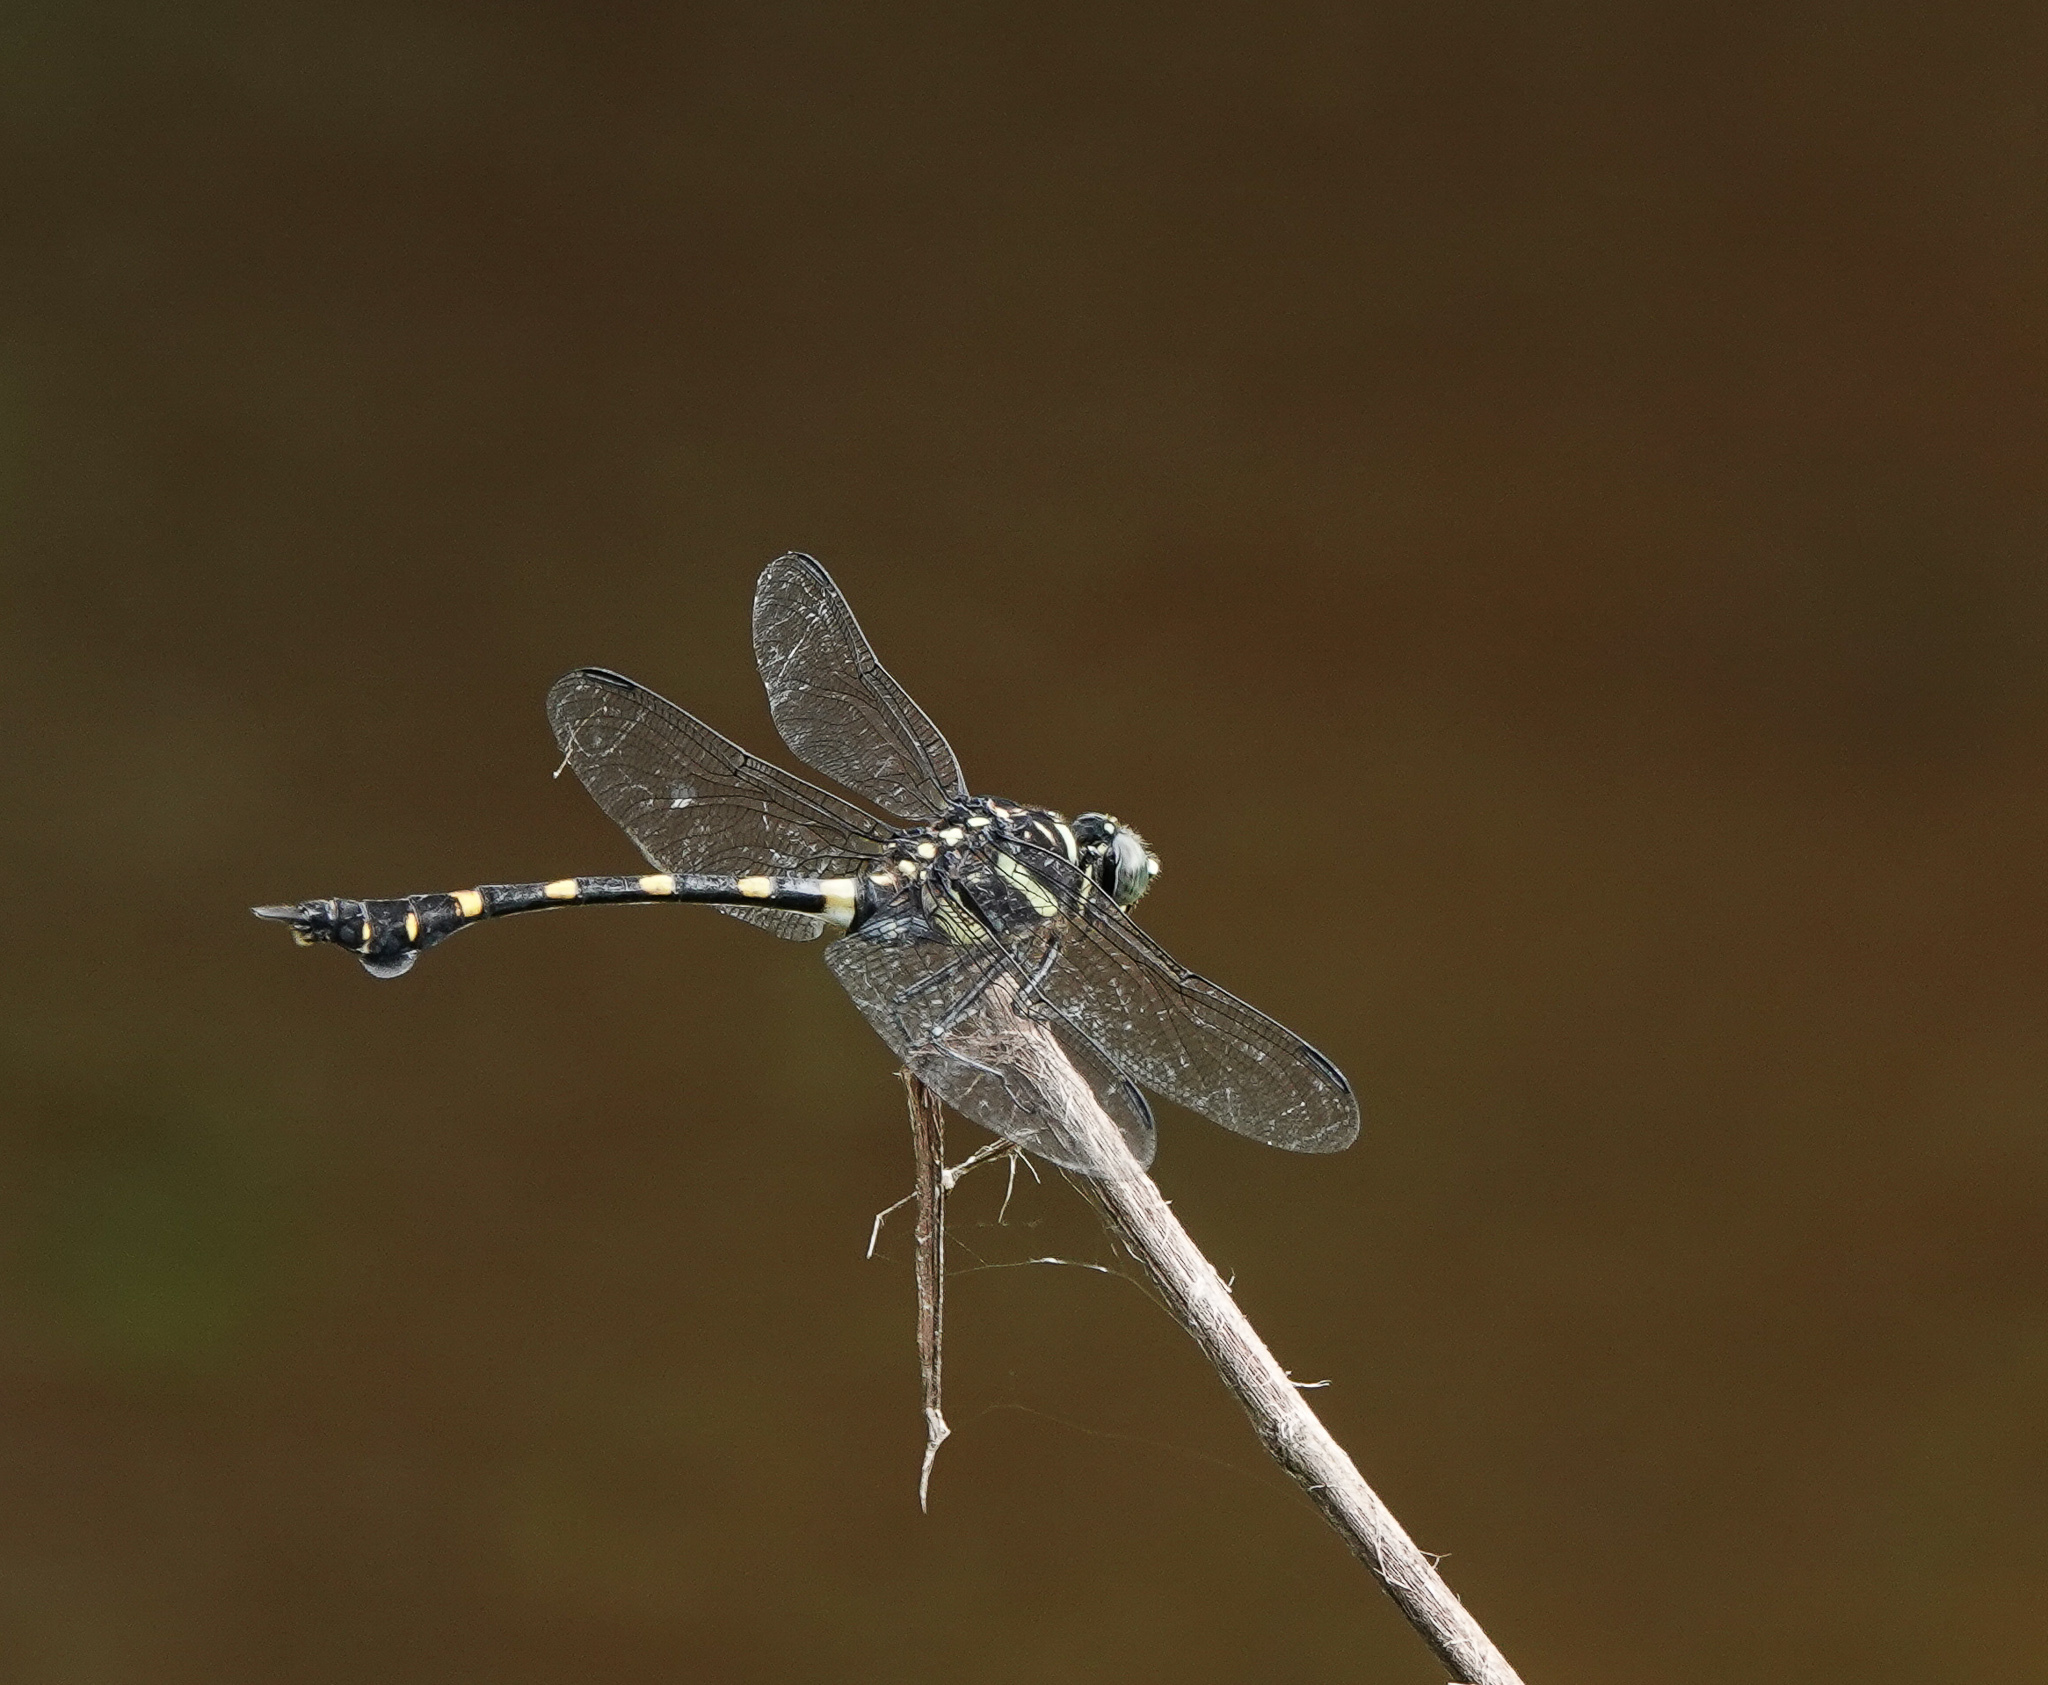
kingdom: Animalia
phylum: Arthropoda
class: Insecta
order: Odonata
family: Gomphidae
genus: Ictinogomphus
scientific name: Ictinogomphus rapax
